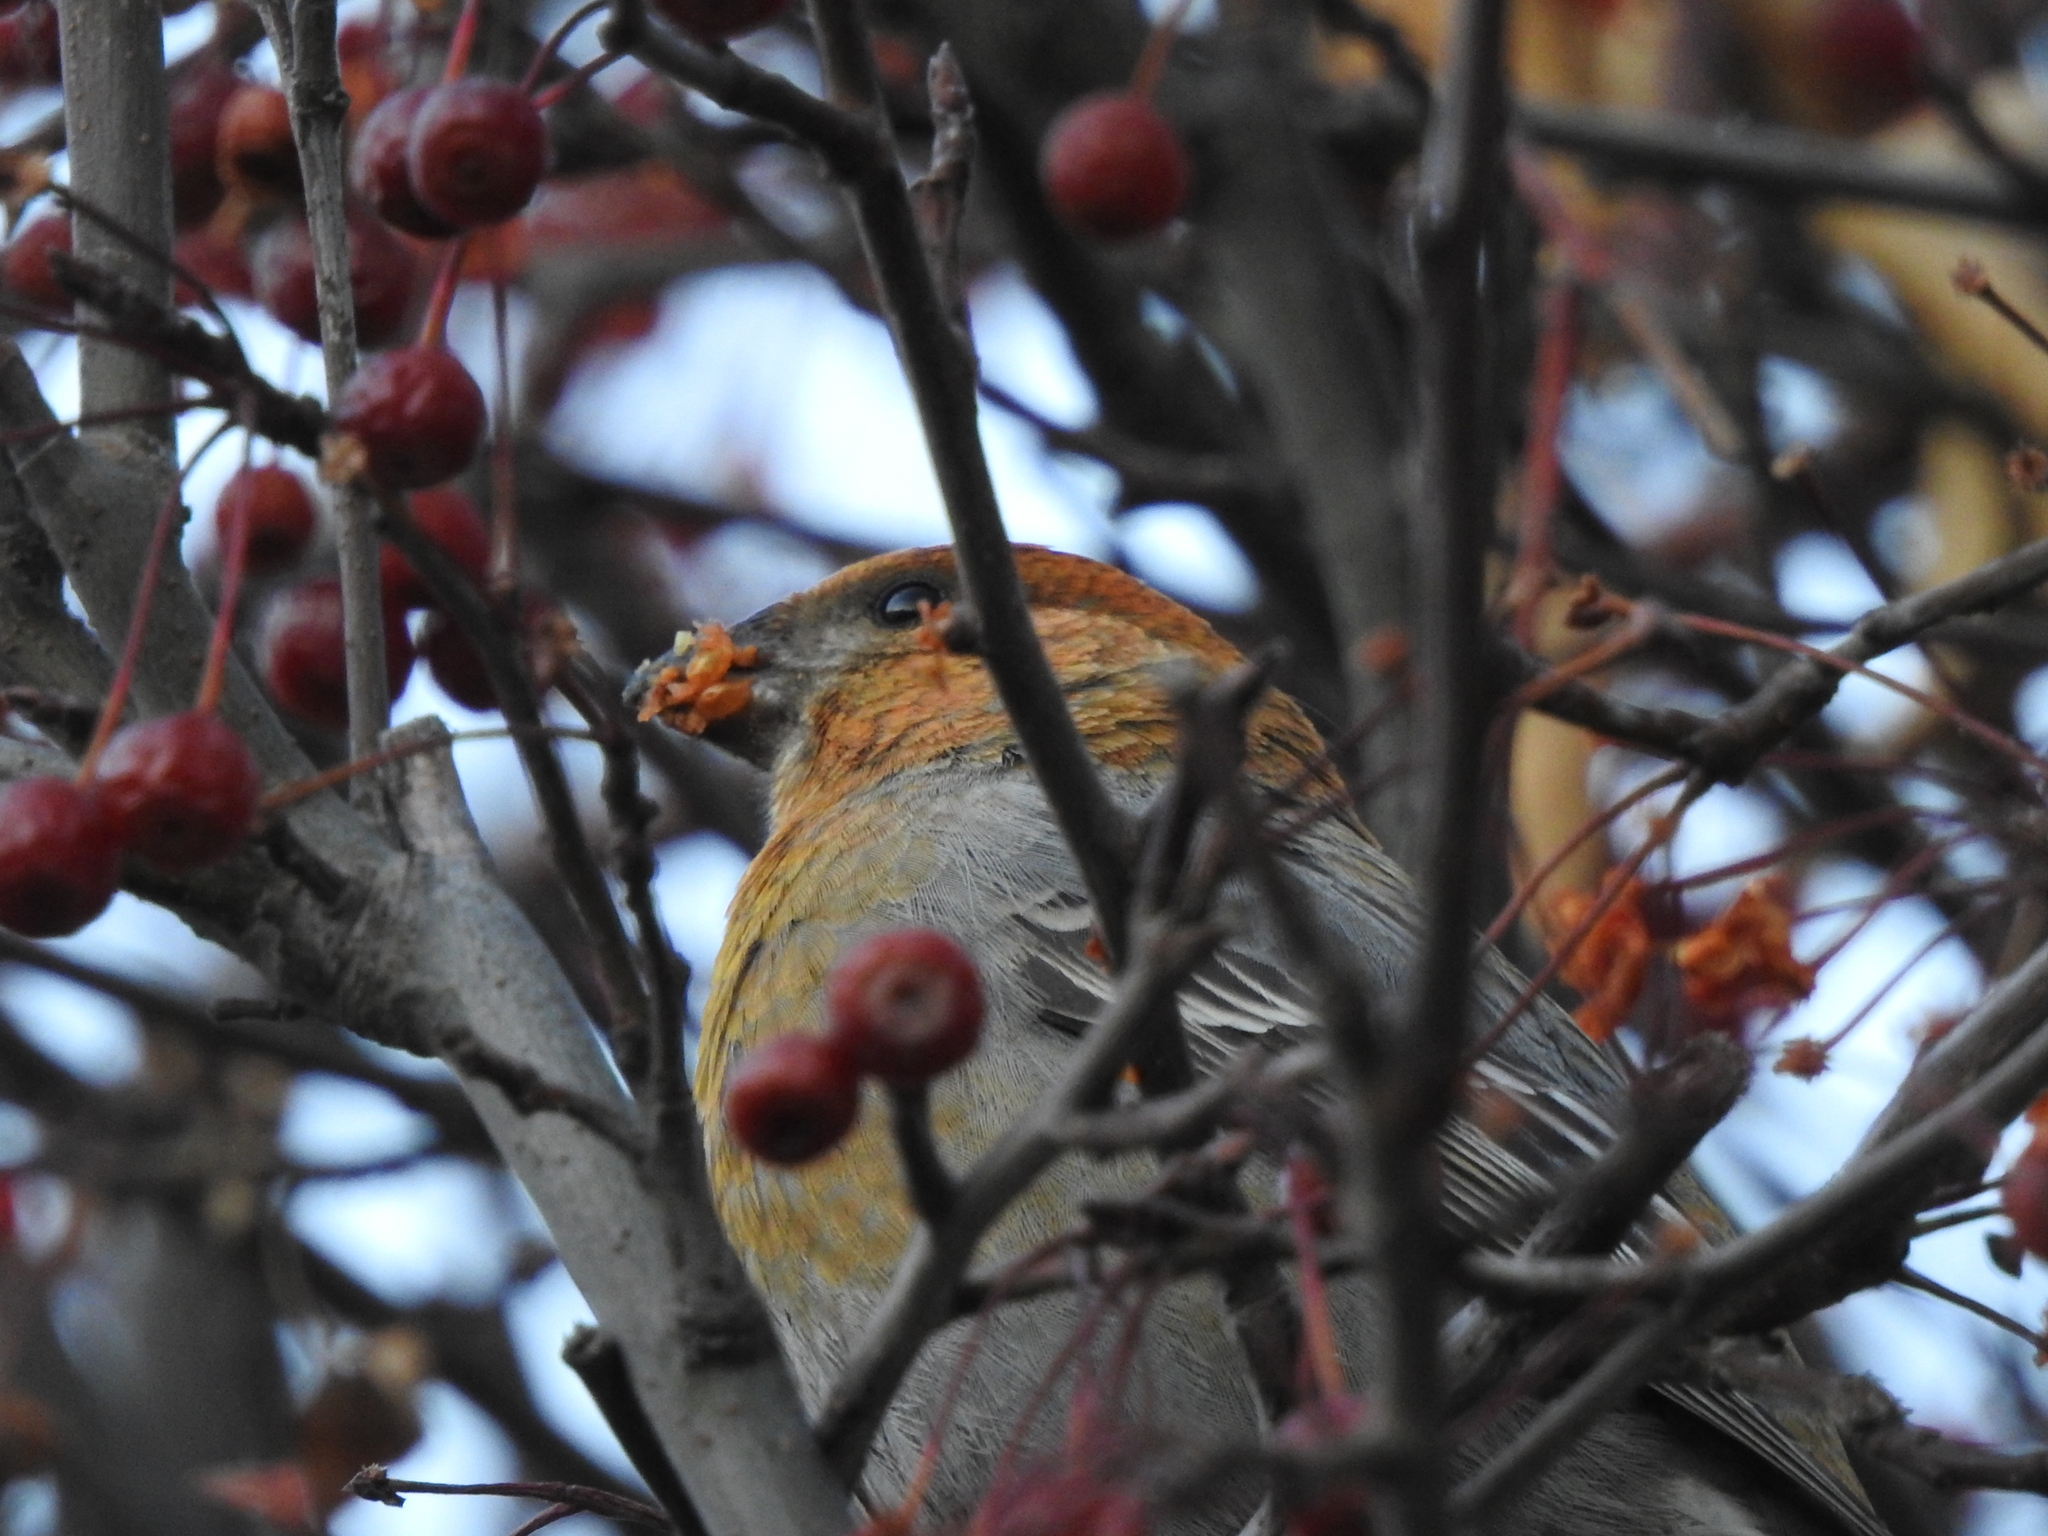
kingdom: Animalia
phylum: Chordata
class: Aves
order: Passeriformes
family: Fringillidae
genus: Pinicola
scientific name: Pinicola enucleator
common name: Pine grosbeak
